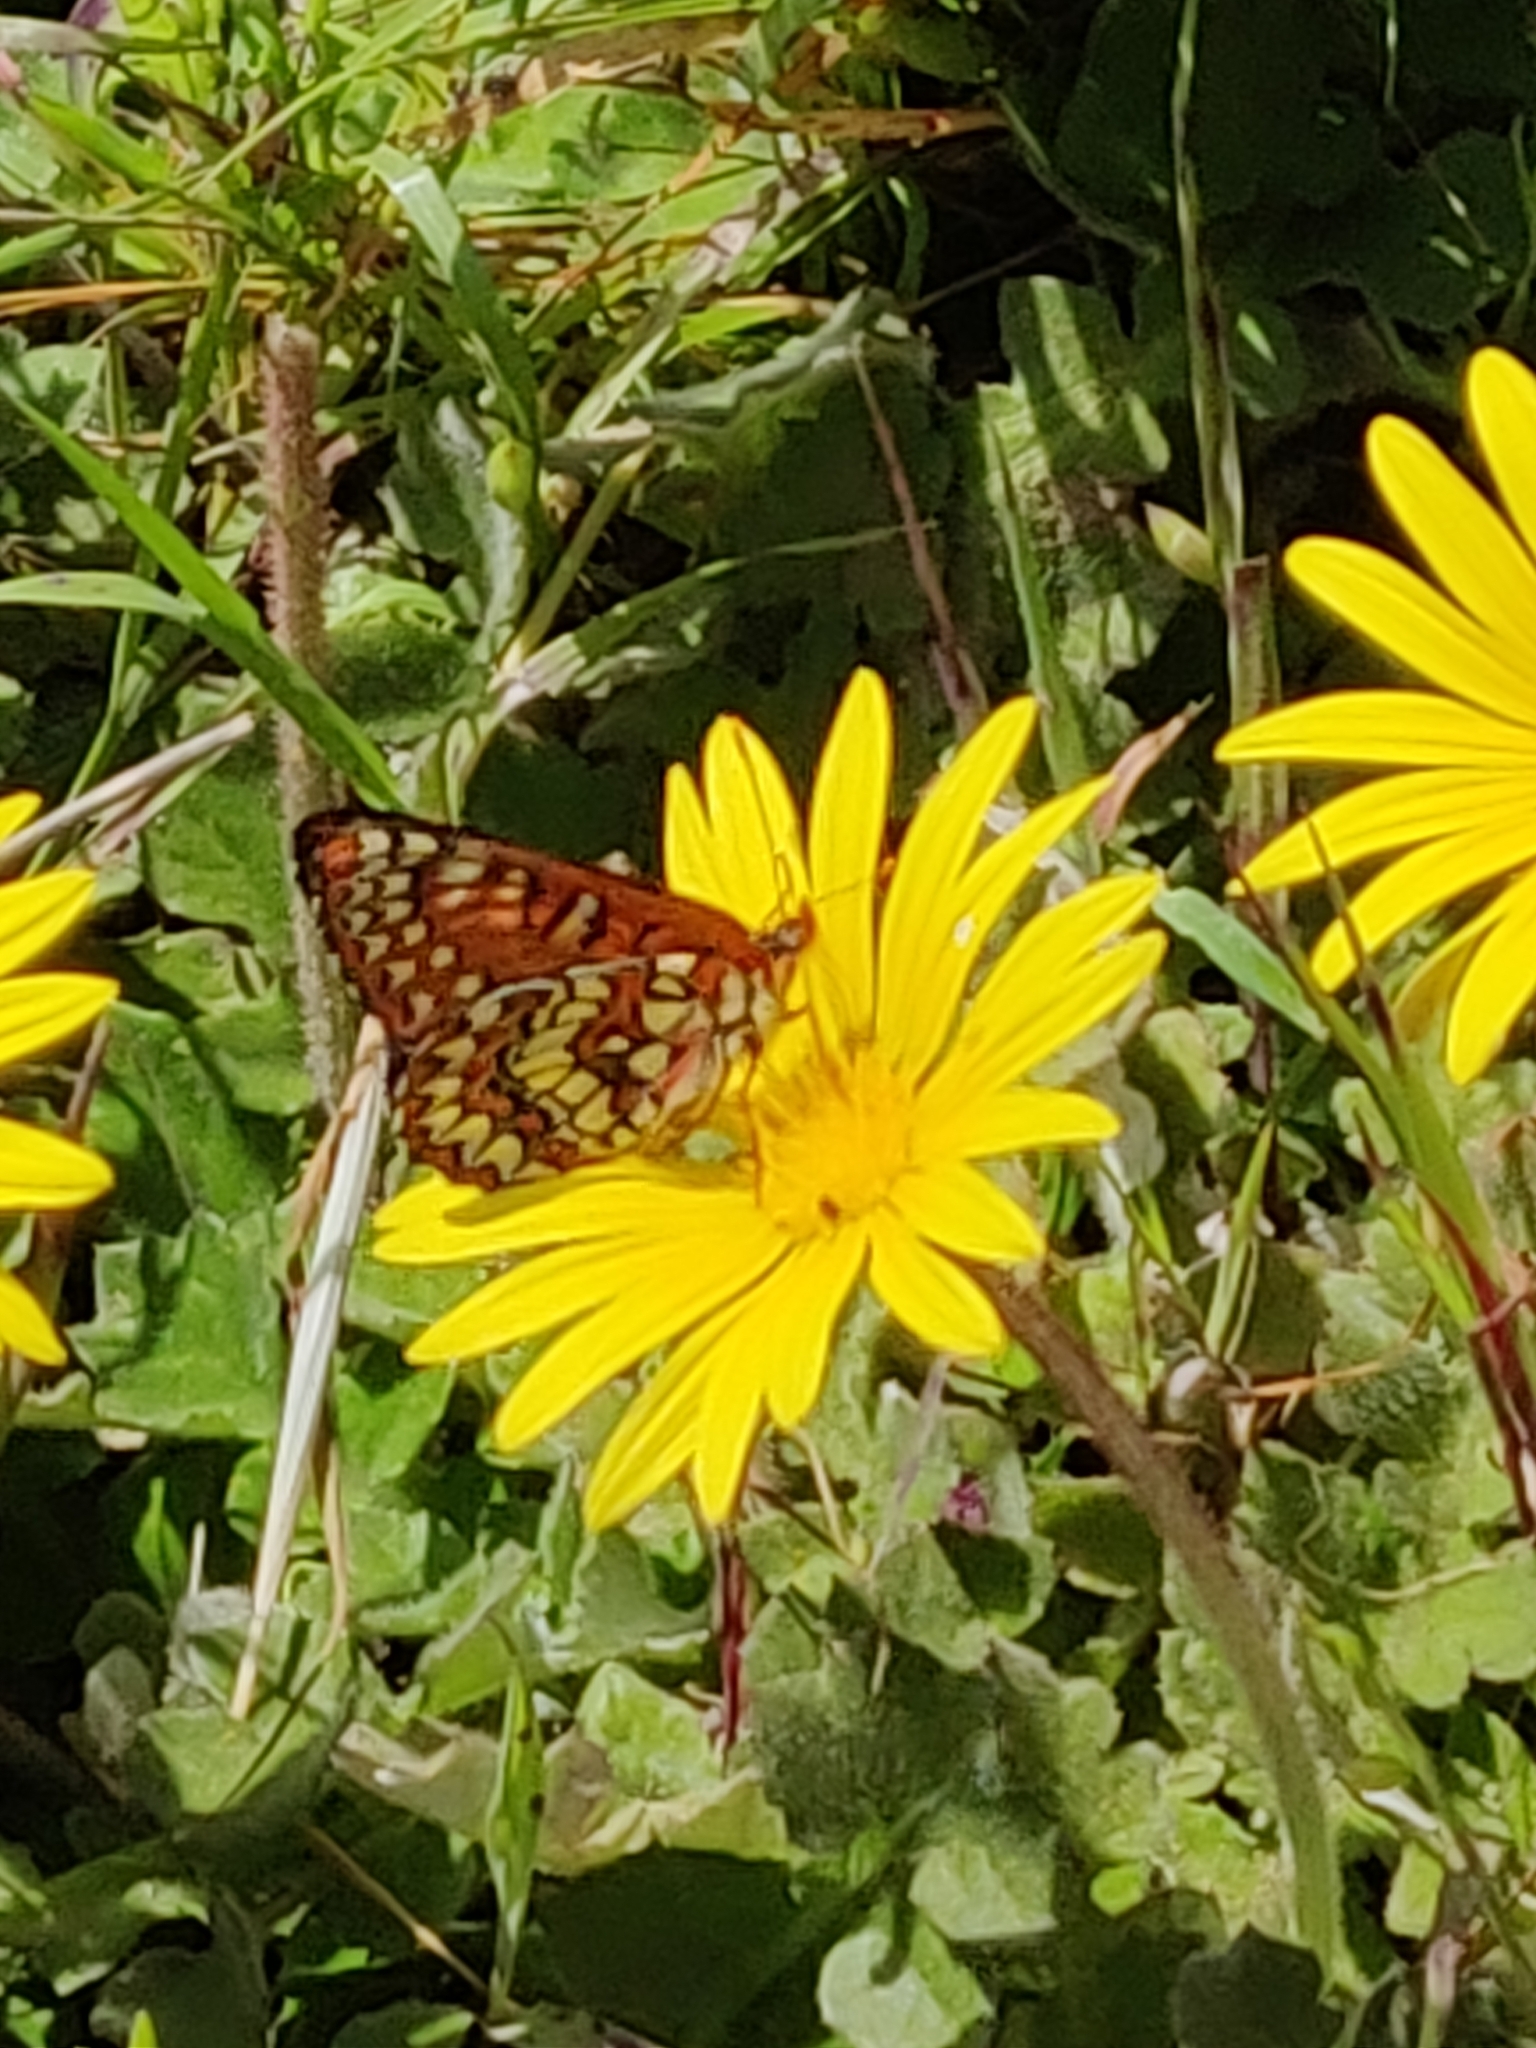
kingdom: Animalia
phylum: Arthropoda
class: Insecta
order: Lepidoptera
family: Nymphalidae
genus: Occidryas
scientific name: Occidryas chalcedona
